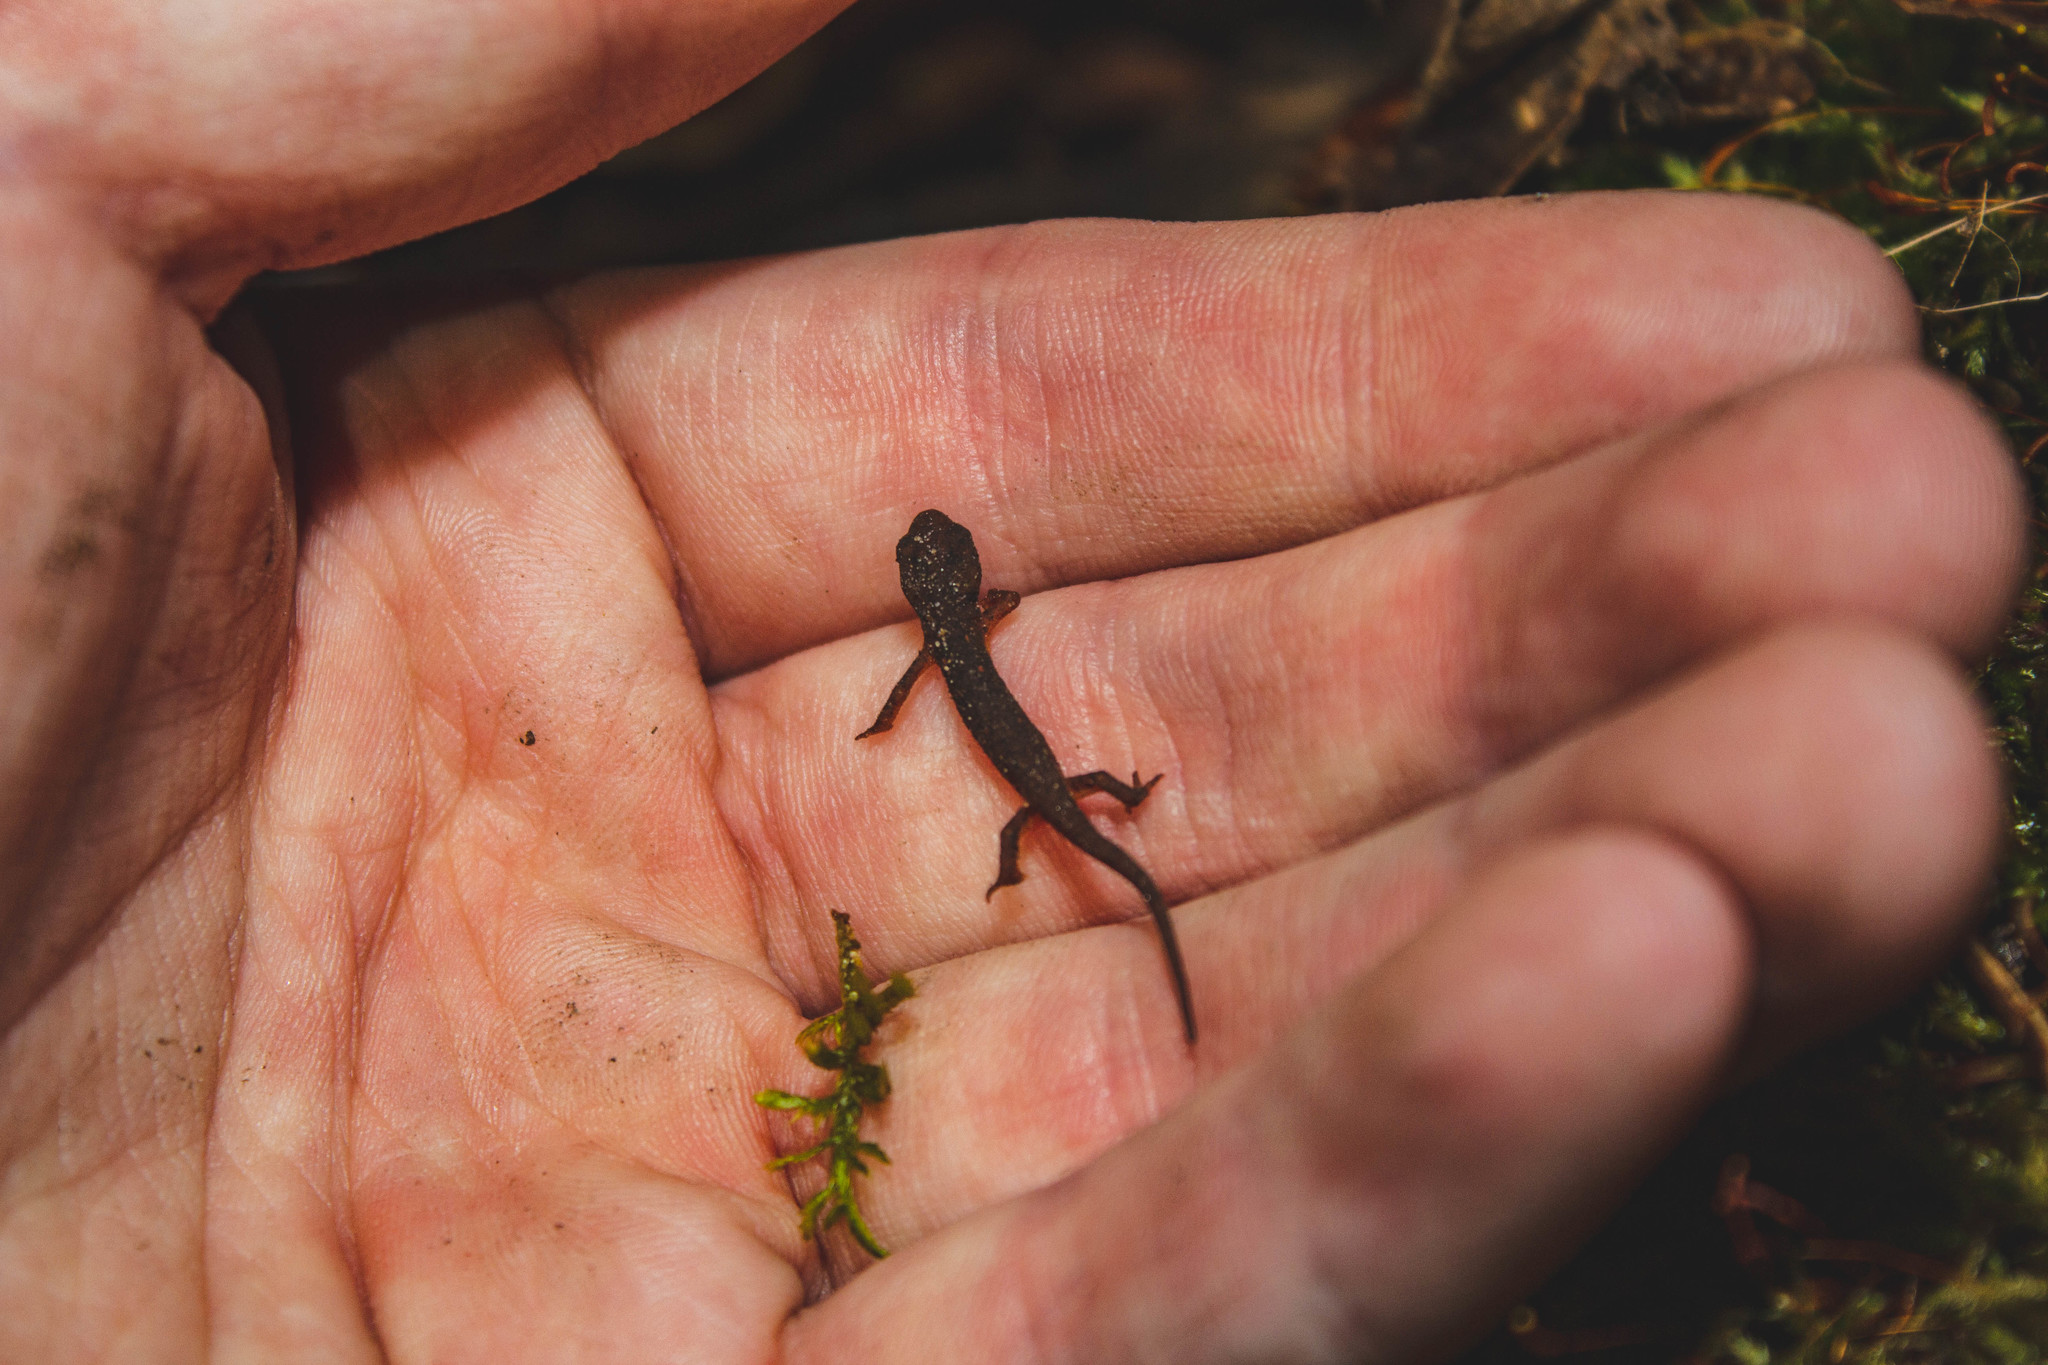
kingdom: Animalia
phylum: Chordata
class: Amphibia
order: Caudata
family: Salamandridae
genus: Notophthalmus
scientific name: Notophthalmus viridescens
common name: Eastern newt
